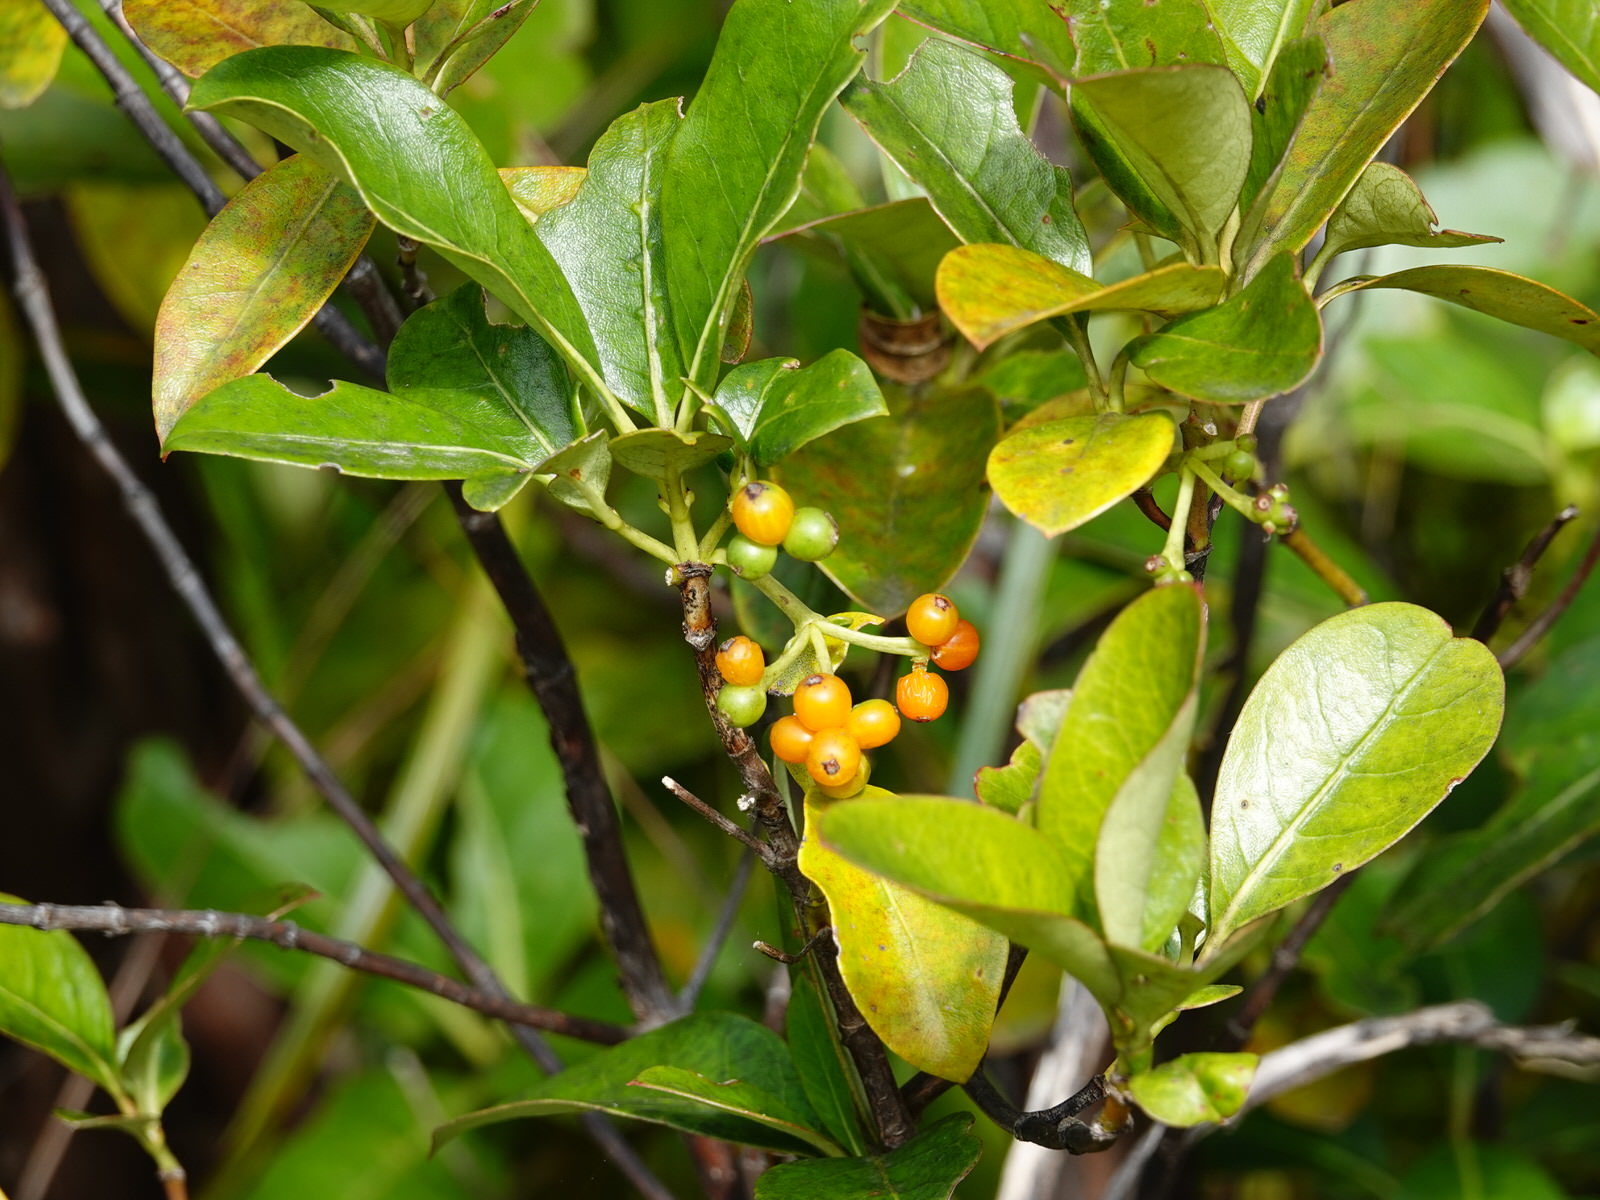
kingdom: Plantae
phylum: Tracheophyta
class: Magnoliopsida
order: Gentianales
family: Rubiaceae
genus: Coprosma
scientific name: Coprosma lucida
